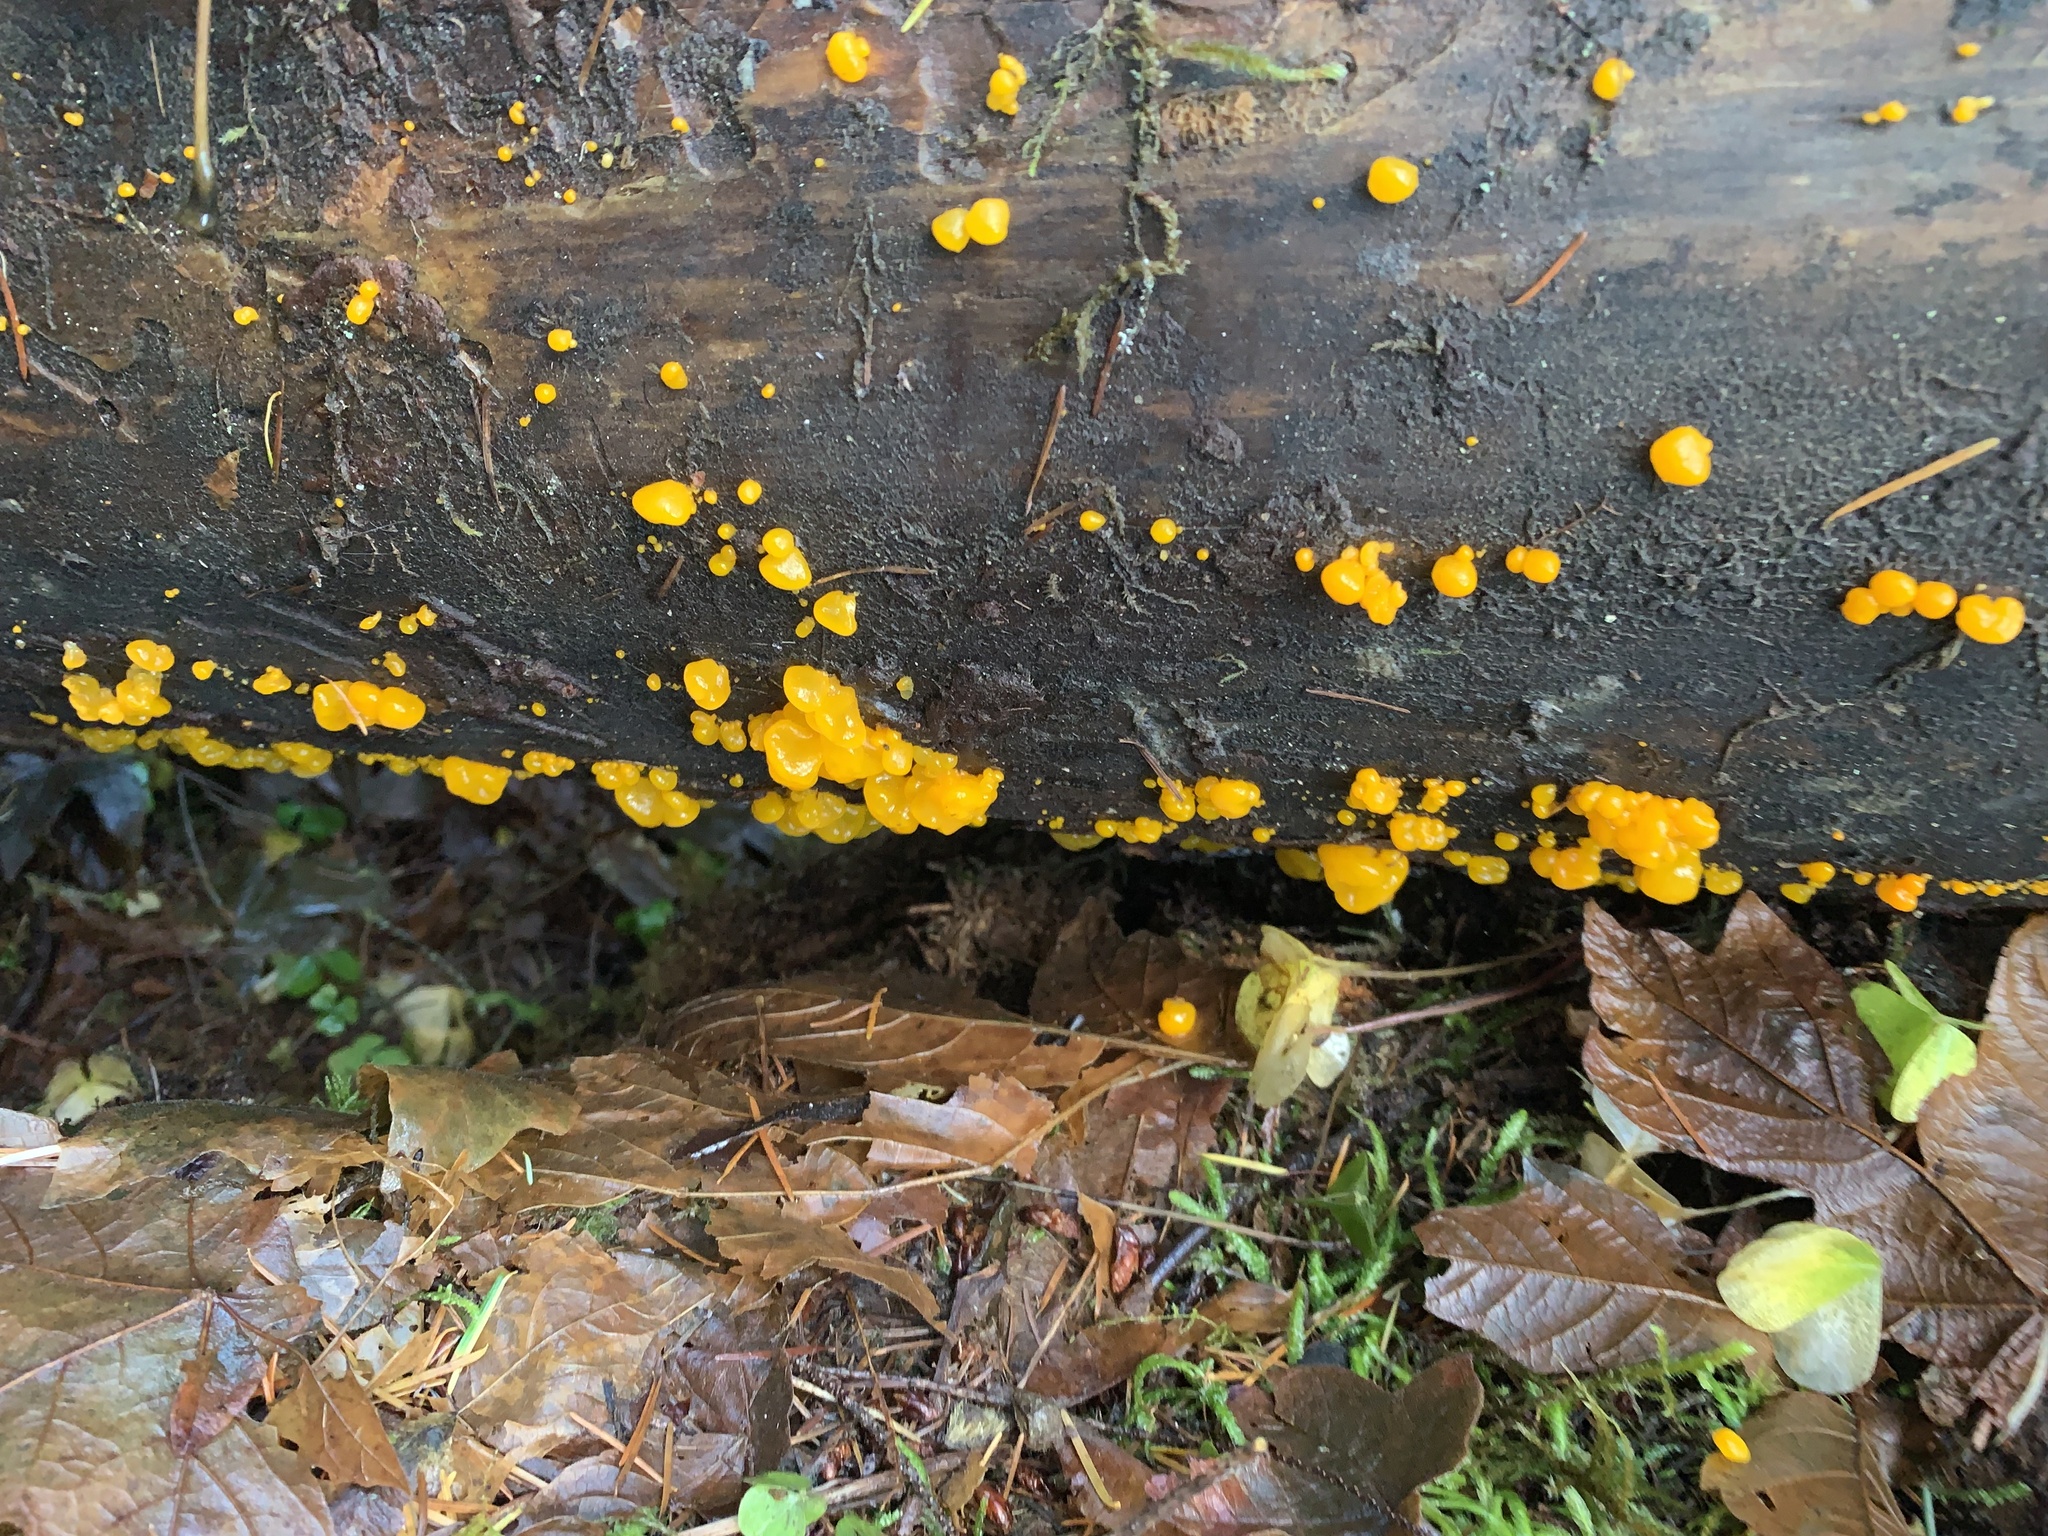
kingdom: Fungi
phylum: Basidiomycota
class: Dacrymycetes
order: Dacrymycetales
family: Dacrymycetaceae
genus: Dacrymyces
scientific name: Dacrymyces chrysospermus
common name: Orange jelly spot
